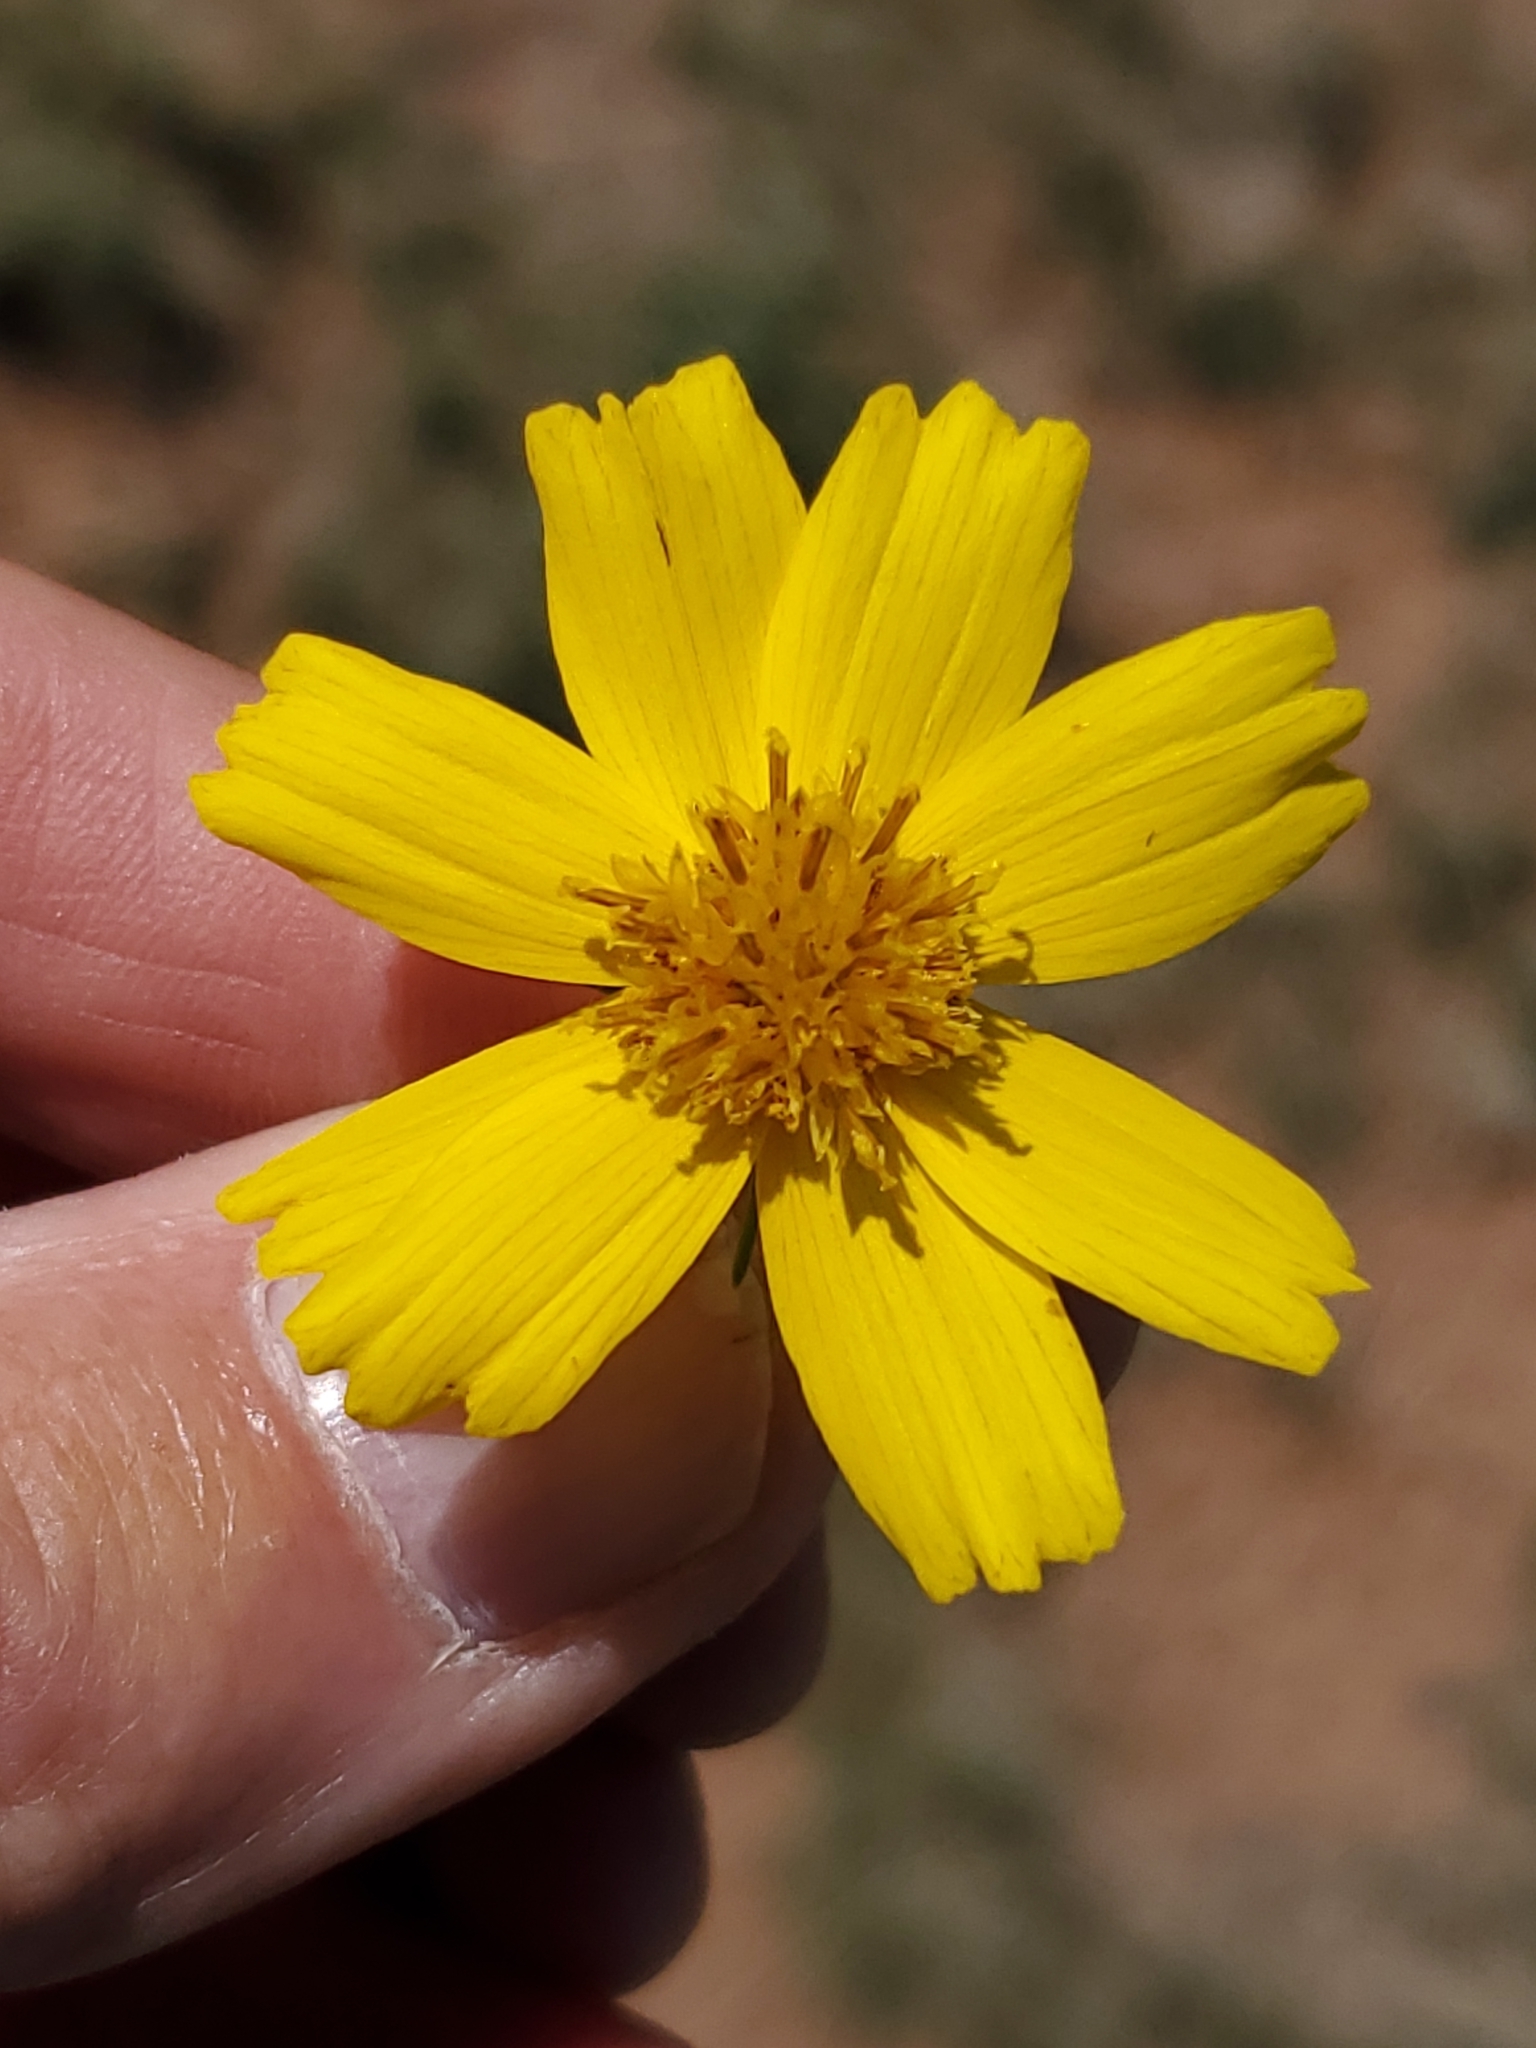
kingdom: Plantae
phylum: Tracheophyta
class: Magnoliopsida
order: Asterales
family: Asteraceae
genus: Thelesperma
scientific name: Thelesperma filifolium
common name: Stiff greenthread
